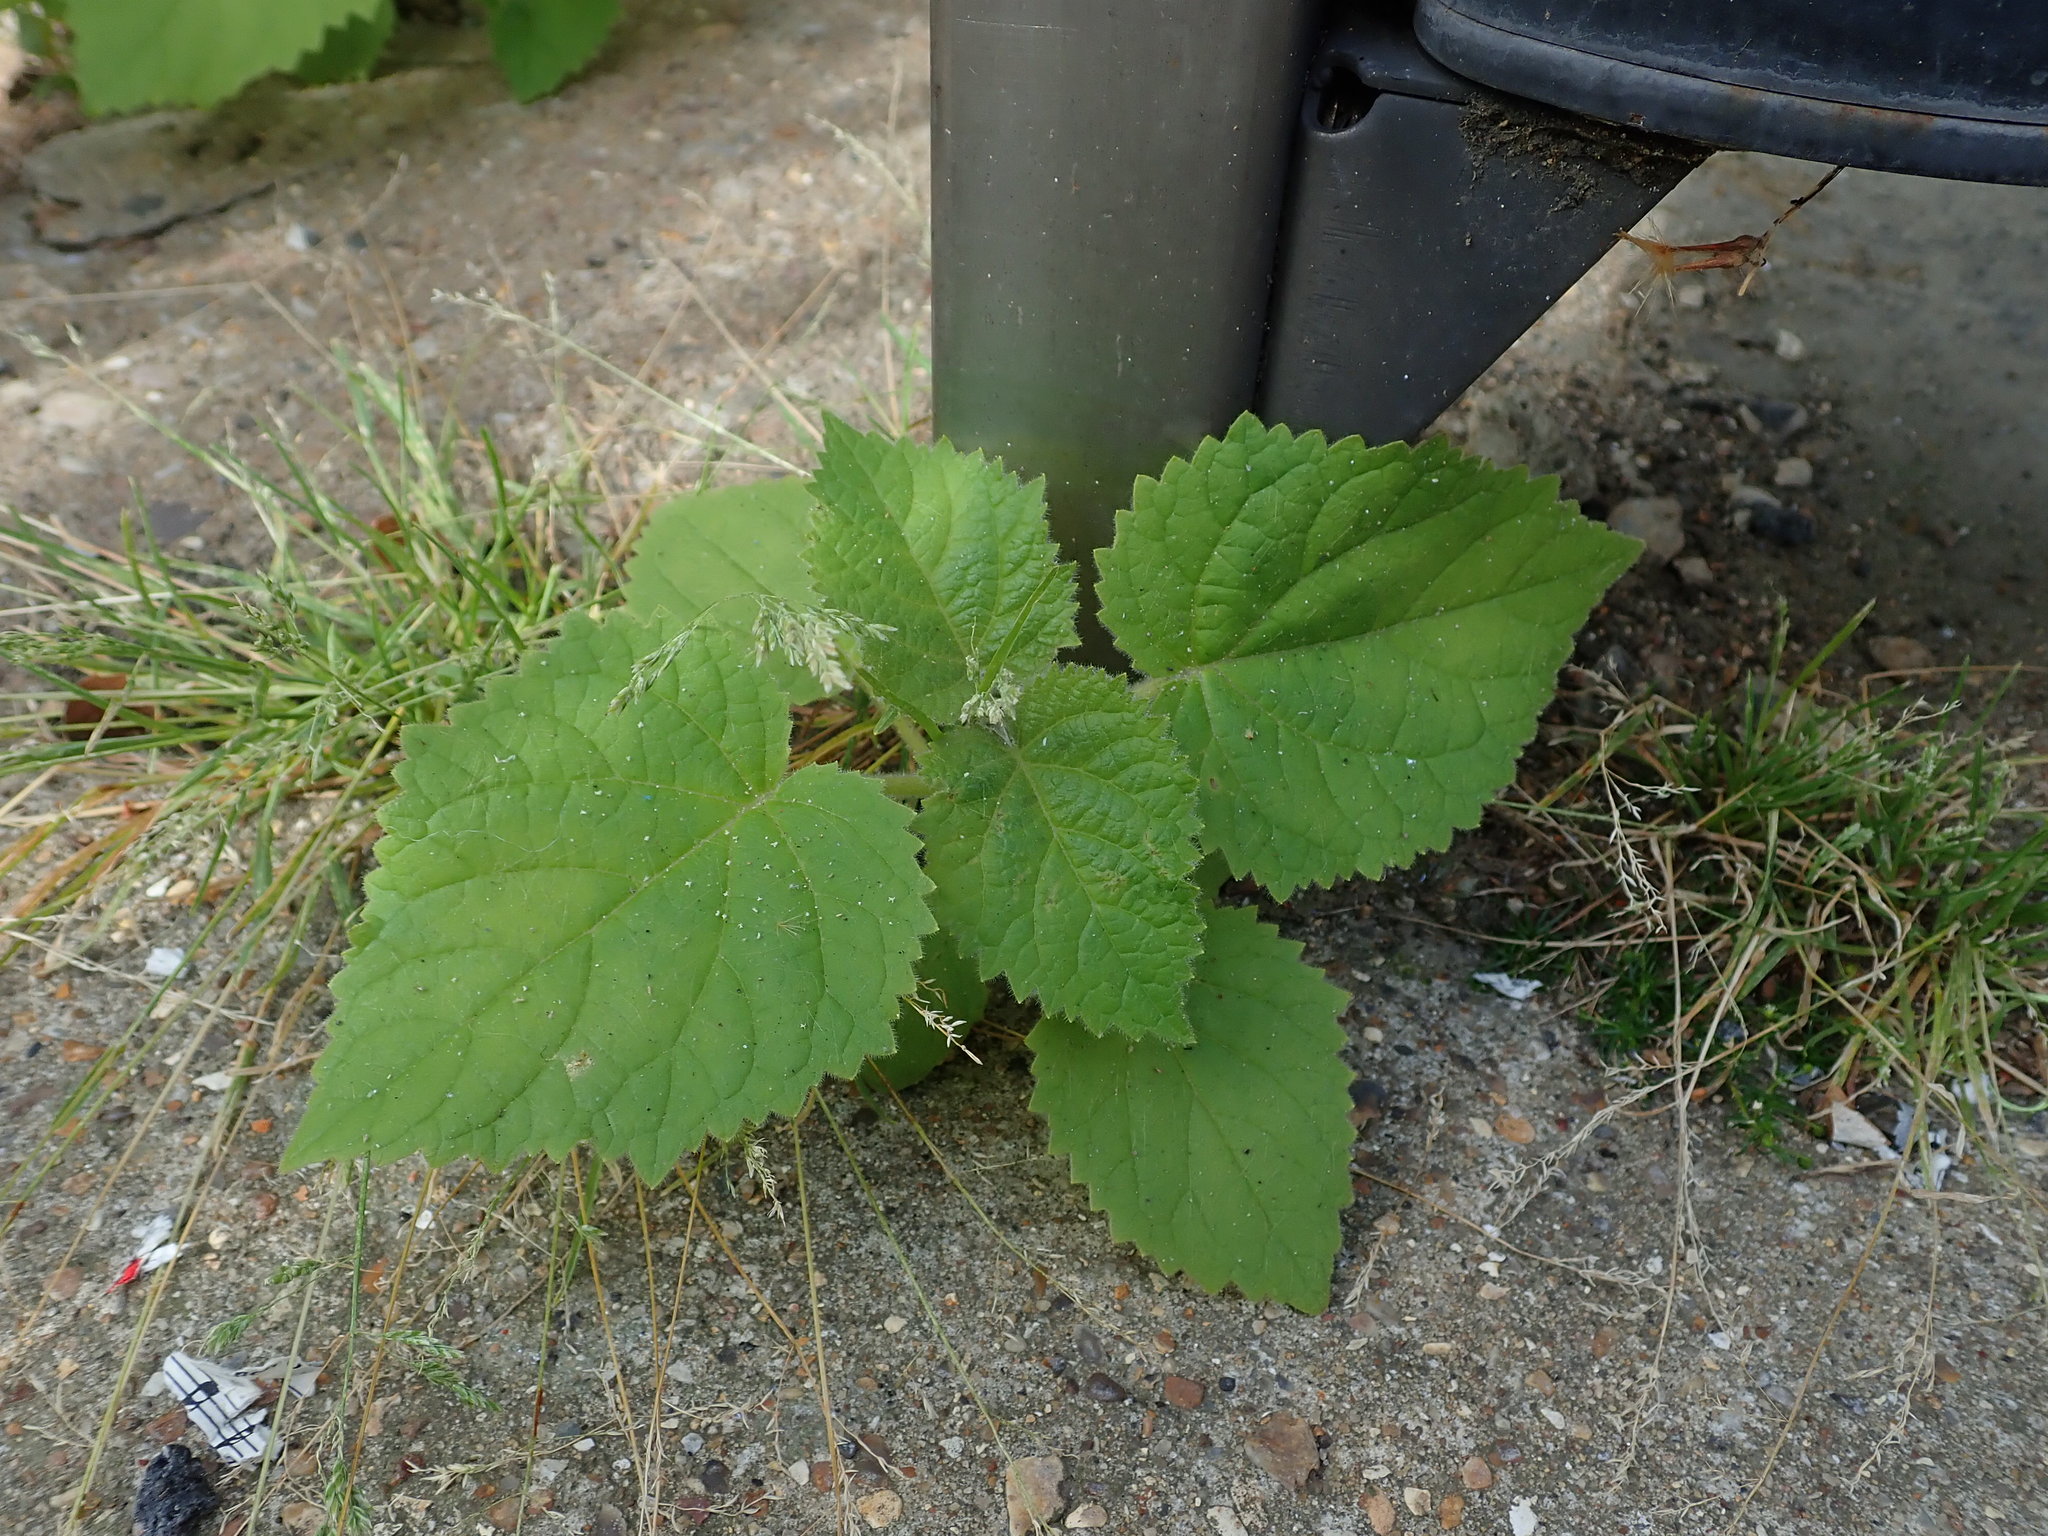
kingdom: Plantae
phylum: Tracheophyta
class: Magnoliopsida
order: Lamiales
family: Paulowniaceae
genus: Paulownia
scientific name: Paulownia tomentosa
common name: Foxglove-tree
